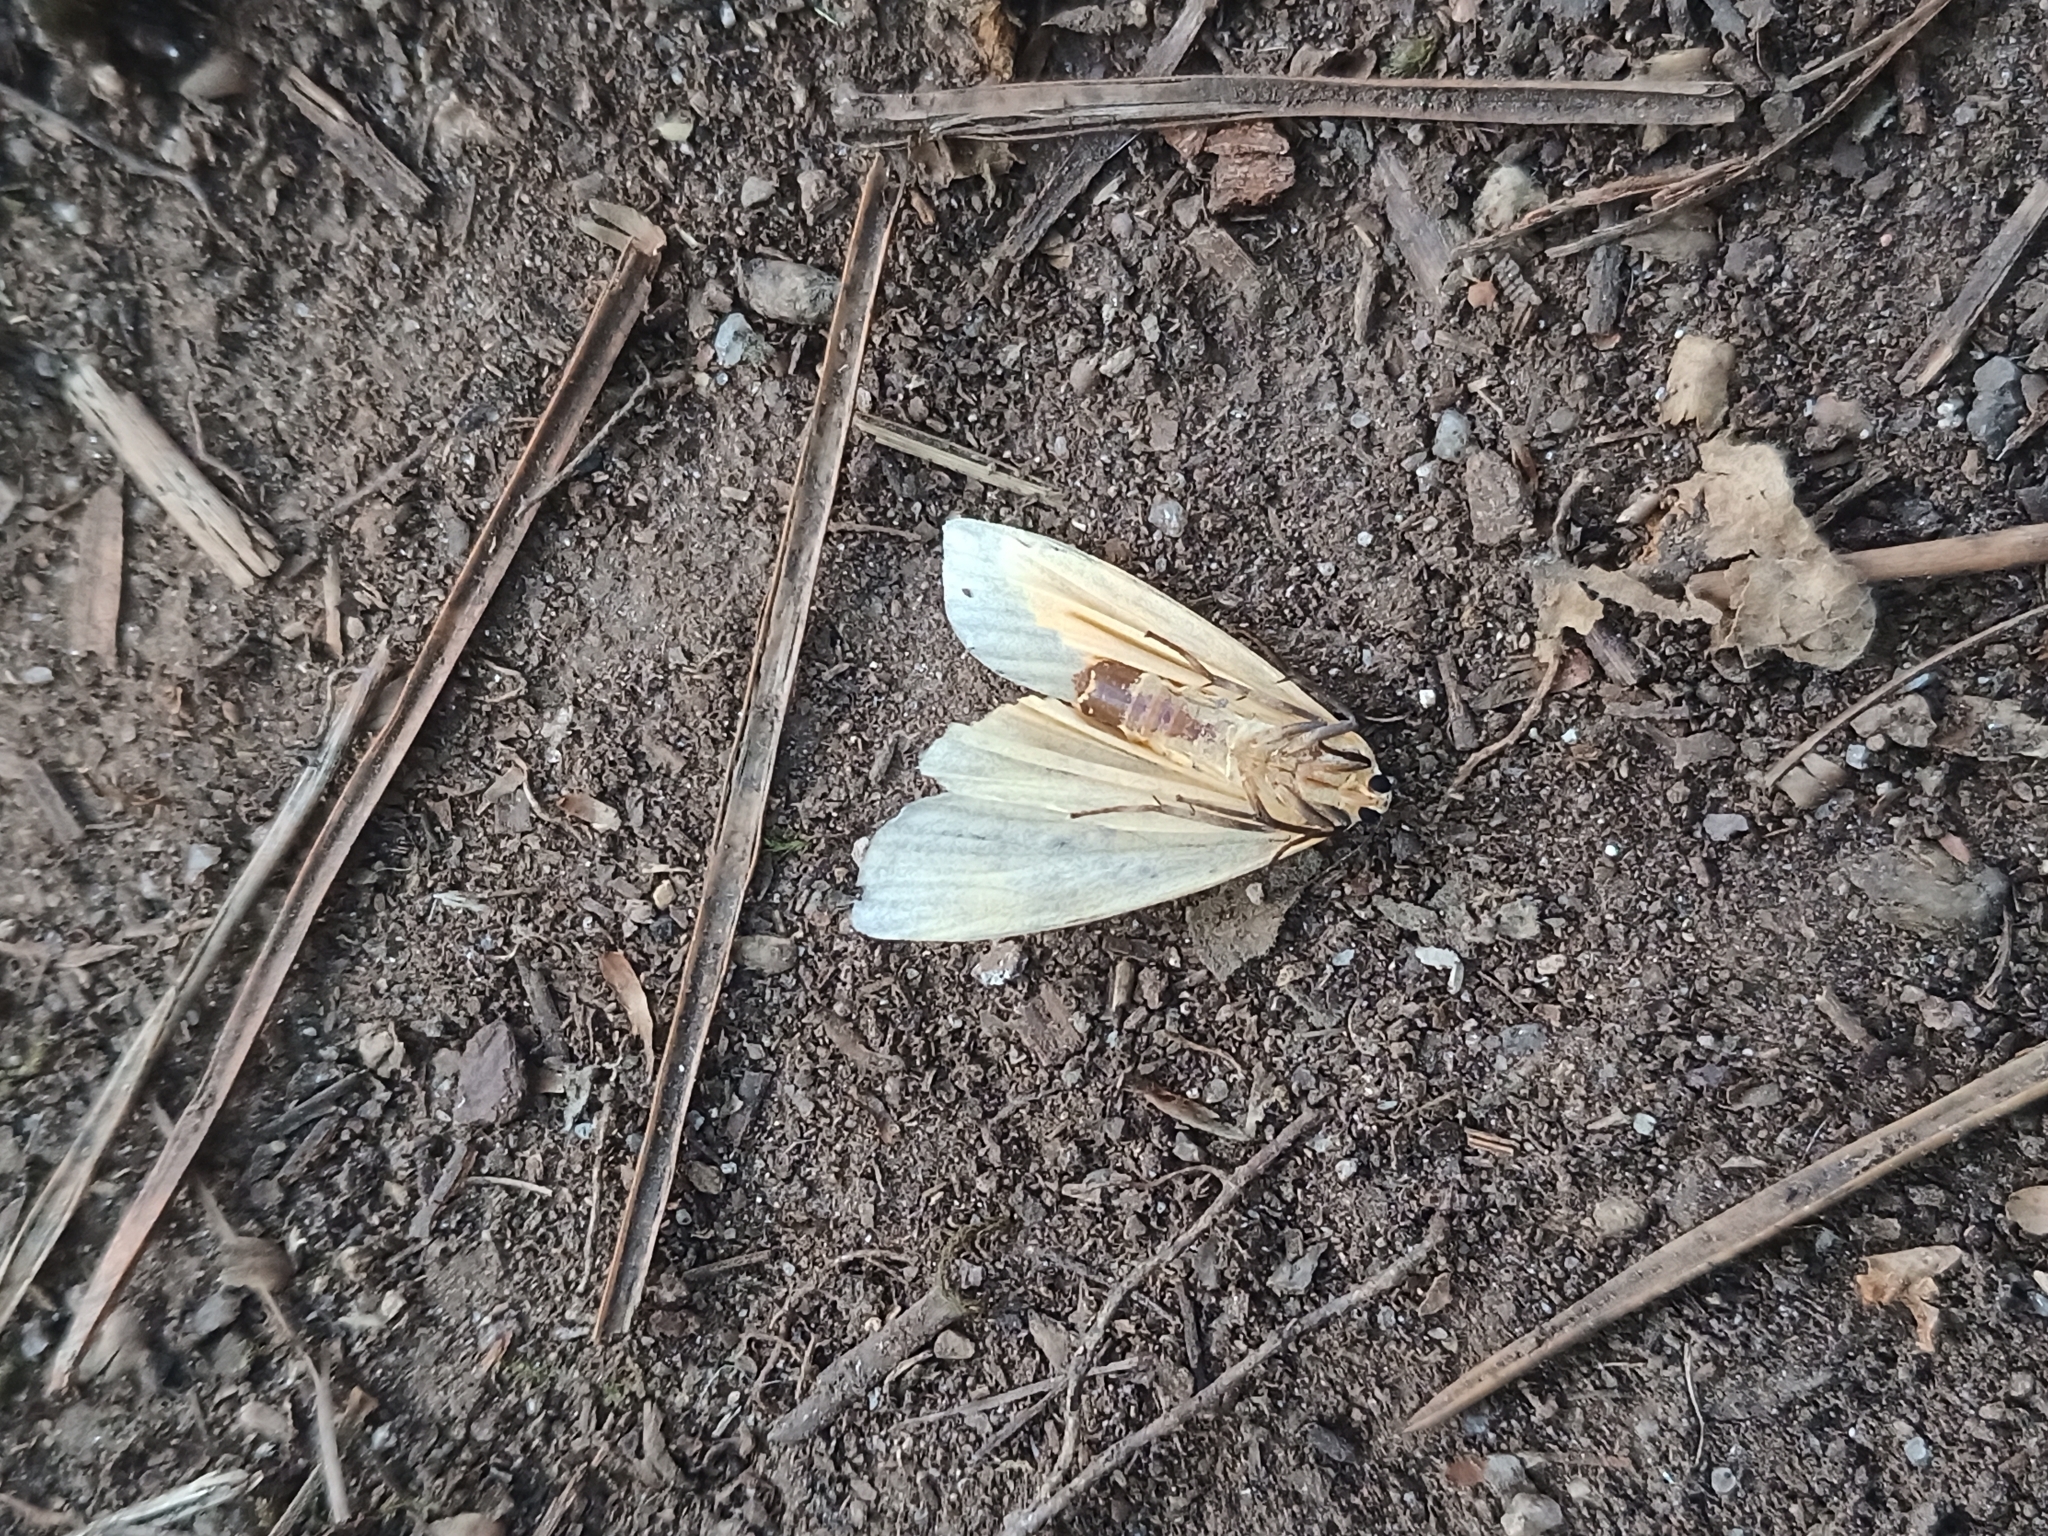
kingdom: Animalia
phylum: Arthropoda
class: Insecta
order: Lepidoptera
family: Erebidae
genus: Lithosia
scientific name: Lithosia quadra
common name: Four-spotted footman
